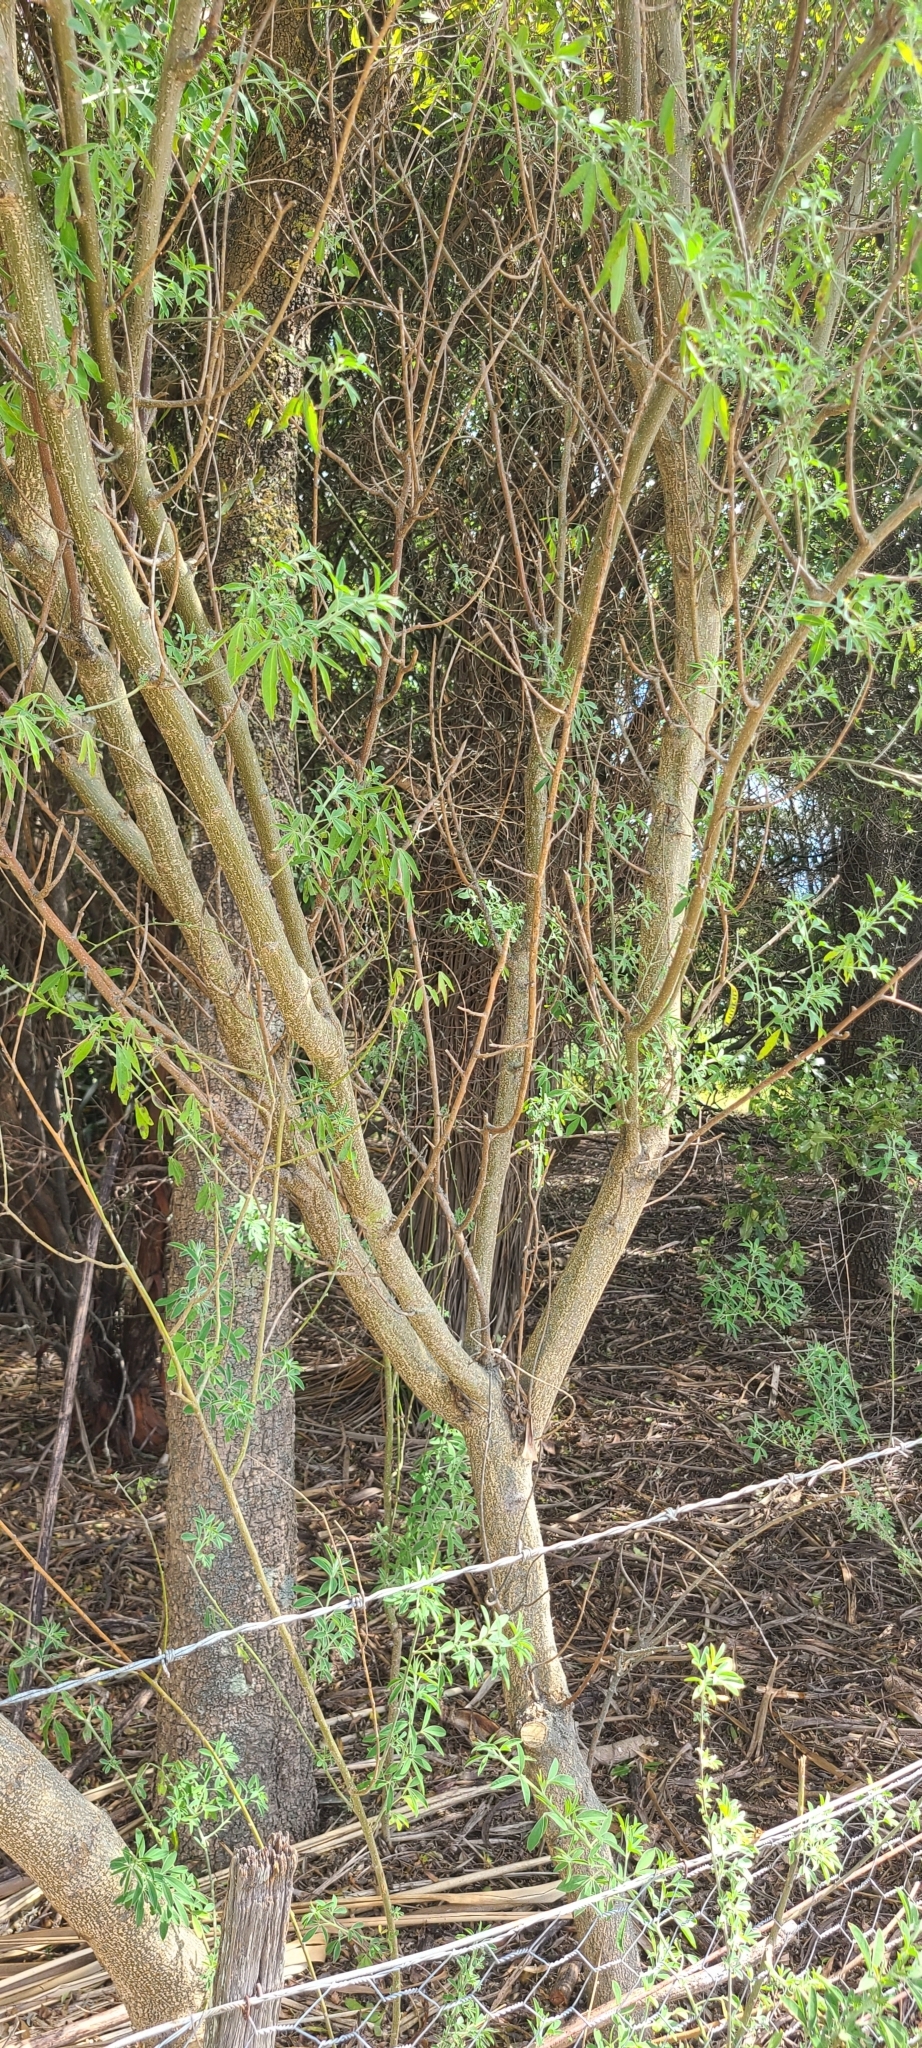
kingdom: Plantae
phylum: Tracheophyta
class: Magnoliopsida
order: Fabales
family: Fabaceae
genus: Chamaecytisus
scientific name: Chamaecytisus prolifer
